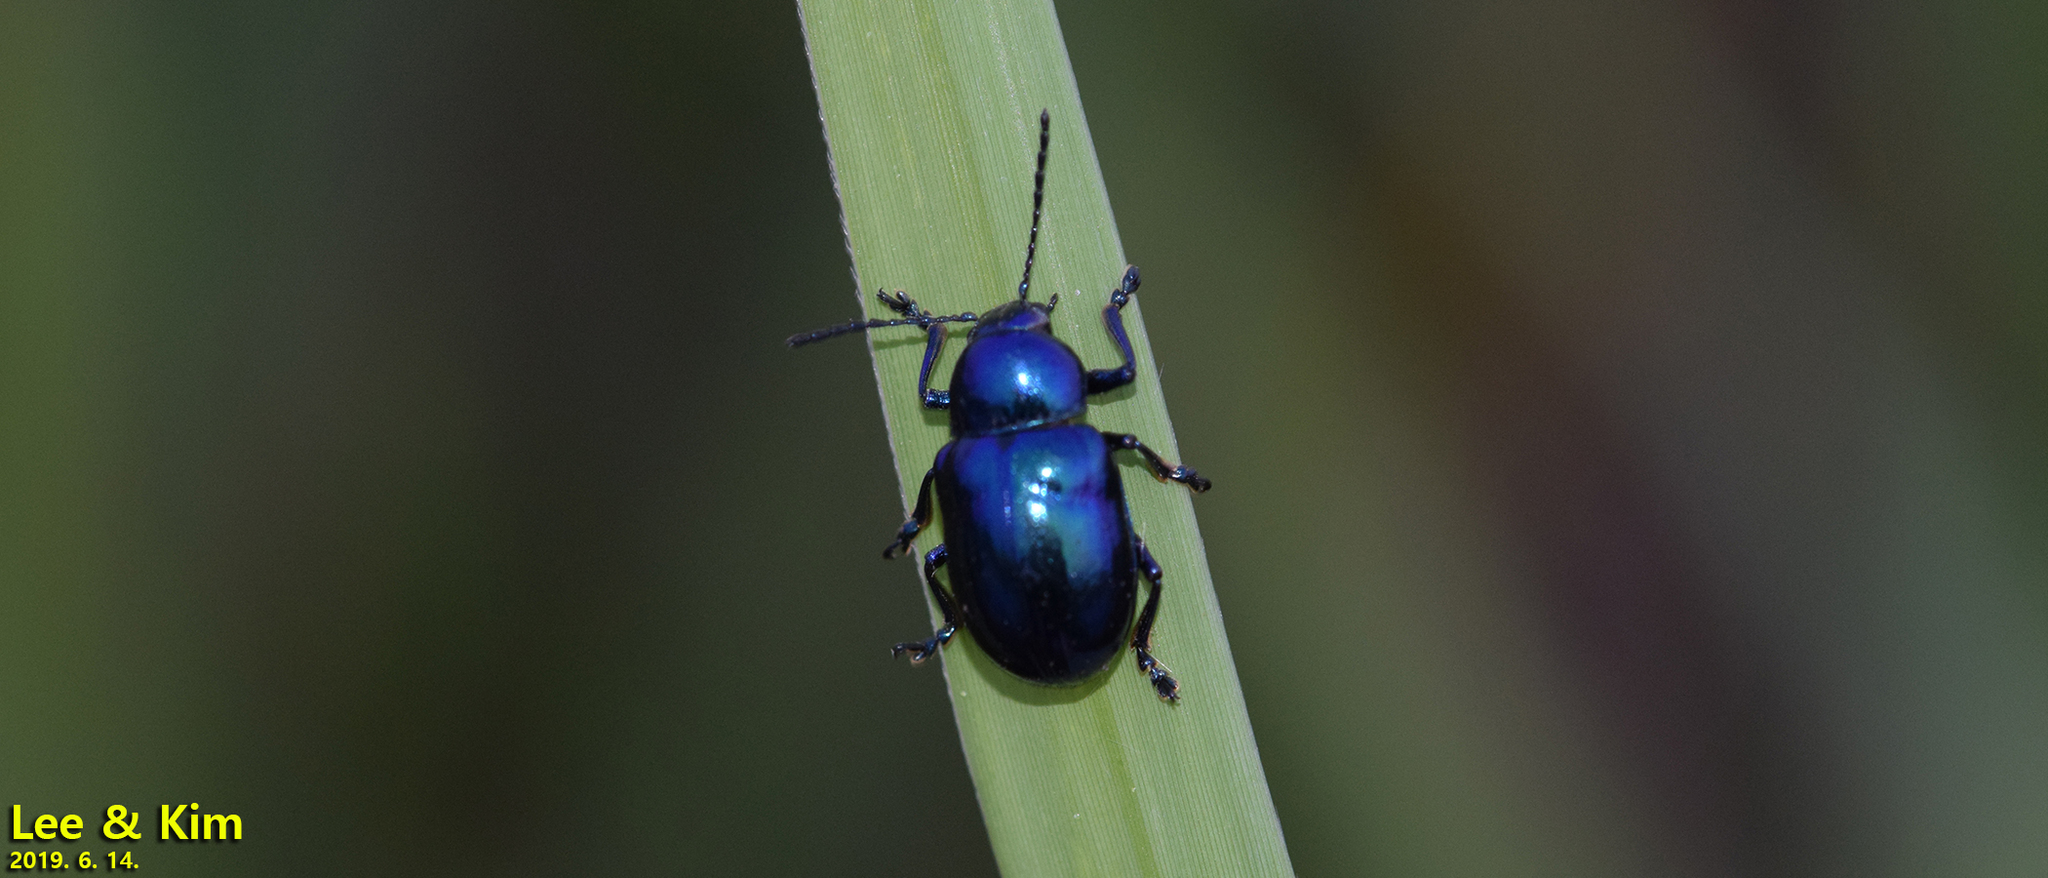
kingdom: Animalia
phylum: Arthropoda
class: Insecta
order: Coleoptera
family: Chrysomelidae
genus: Chrysochus
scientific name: Chrysochus chinensis
